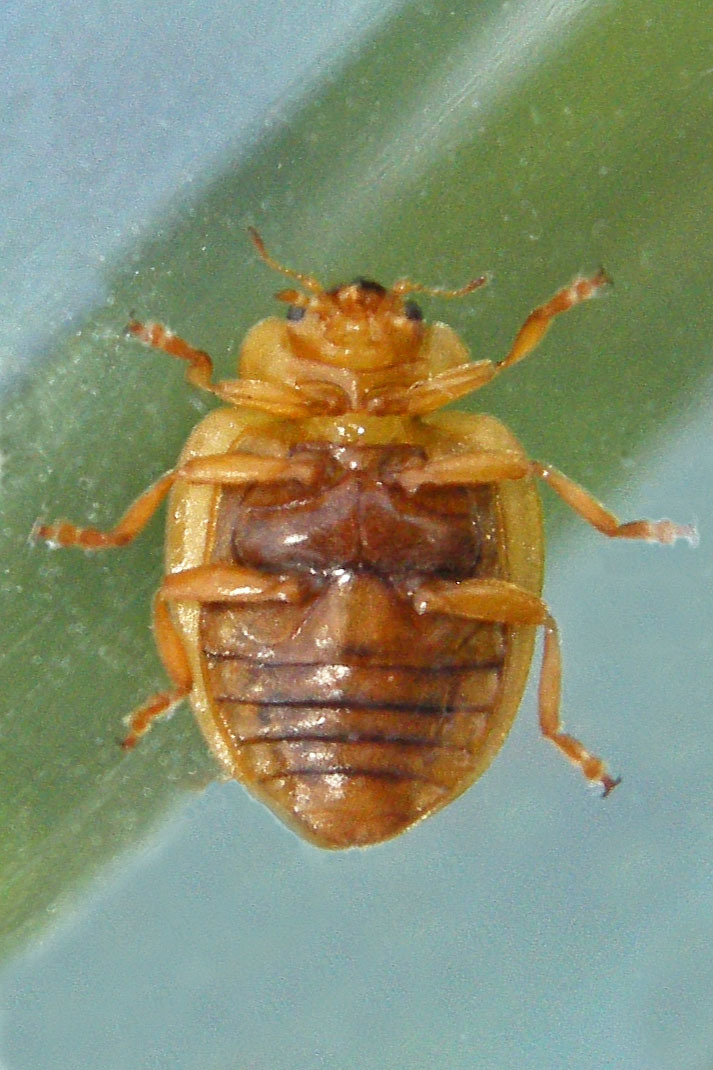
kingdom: Animalia
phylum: Arthropoda
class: Insecta
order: Coleoptera
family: Coccinellidae
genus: Epilachna
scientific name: Epilachna varivestis
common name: Ladybird beetle
